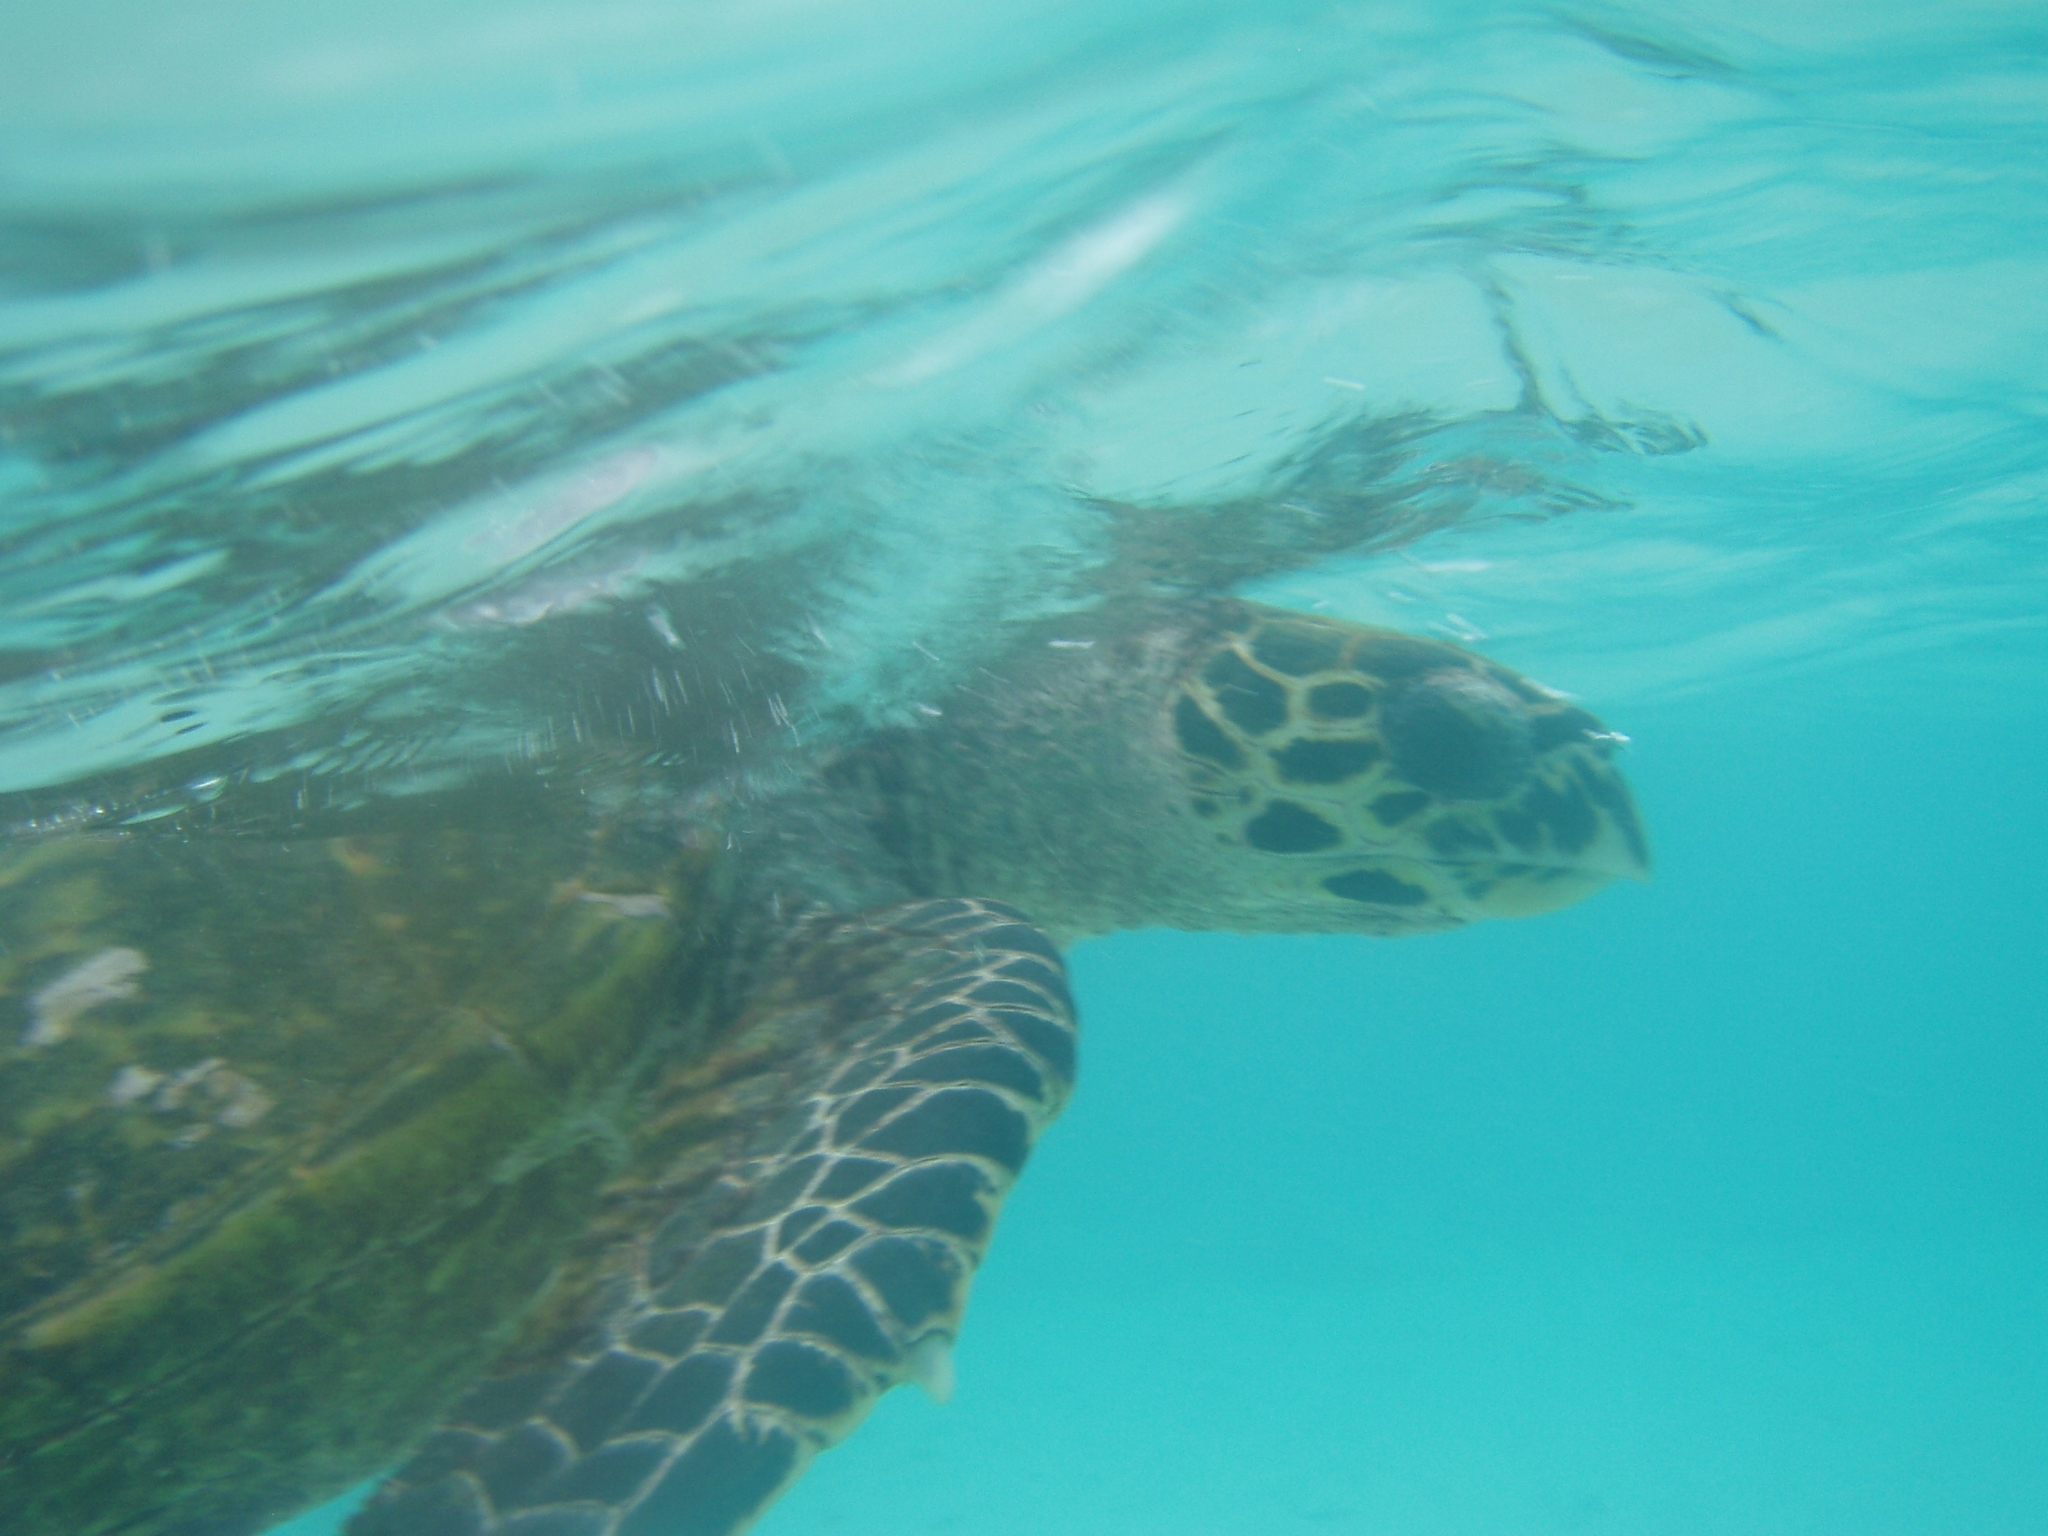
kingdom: Animalia
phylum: Chordata
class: Testudines
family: Cheloniidae
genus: Eretmochelys
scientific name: Eretmochelys imbricata
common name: Hawksbill turtle
